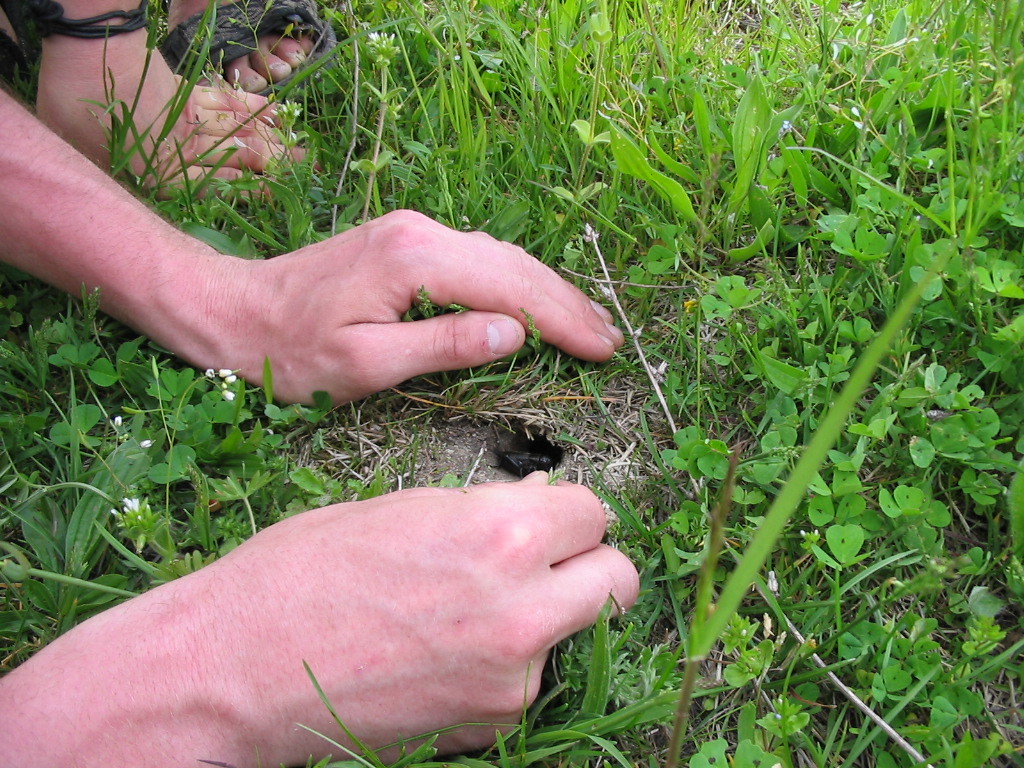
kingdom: Animalia
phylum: Arthropoda
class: Insecta
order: Orthoptera
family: Gryllidae
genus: Gryllus
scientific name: Gryllus campestris
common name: Field cricket
